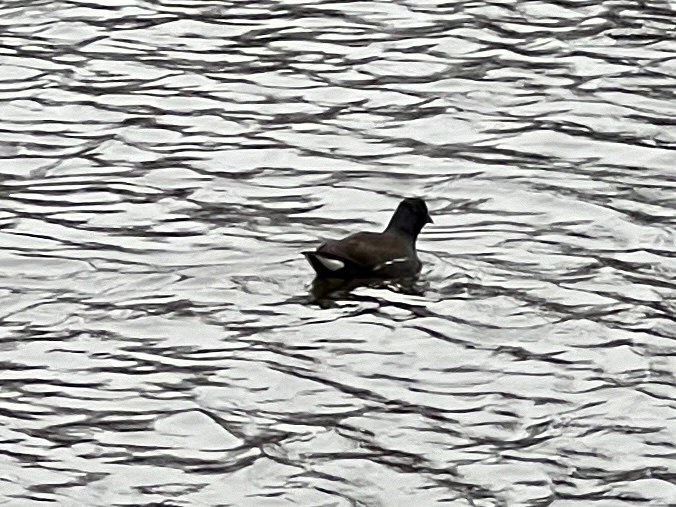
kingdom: Animalia
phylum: Chordata
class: Aves
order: Gruiformes
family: Rallidae
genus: Gallinula
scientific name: Gallinula chloropus
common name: Common moorhen
